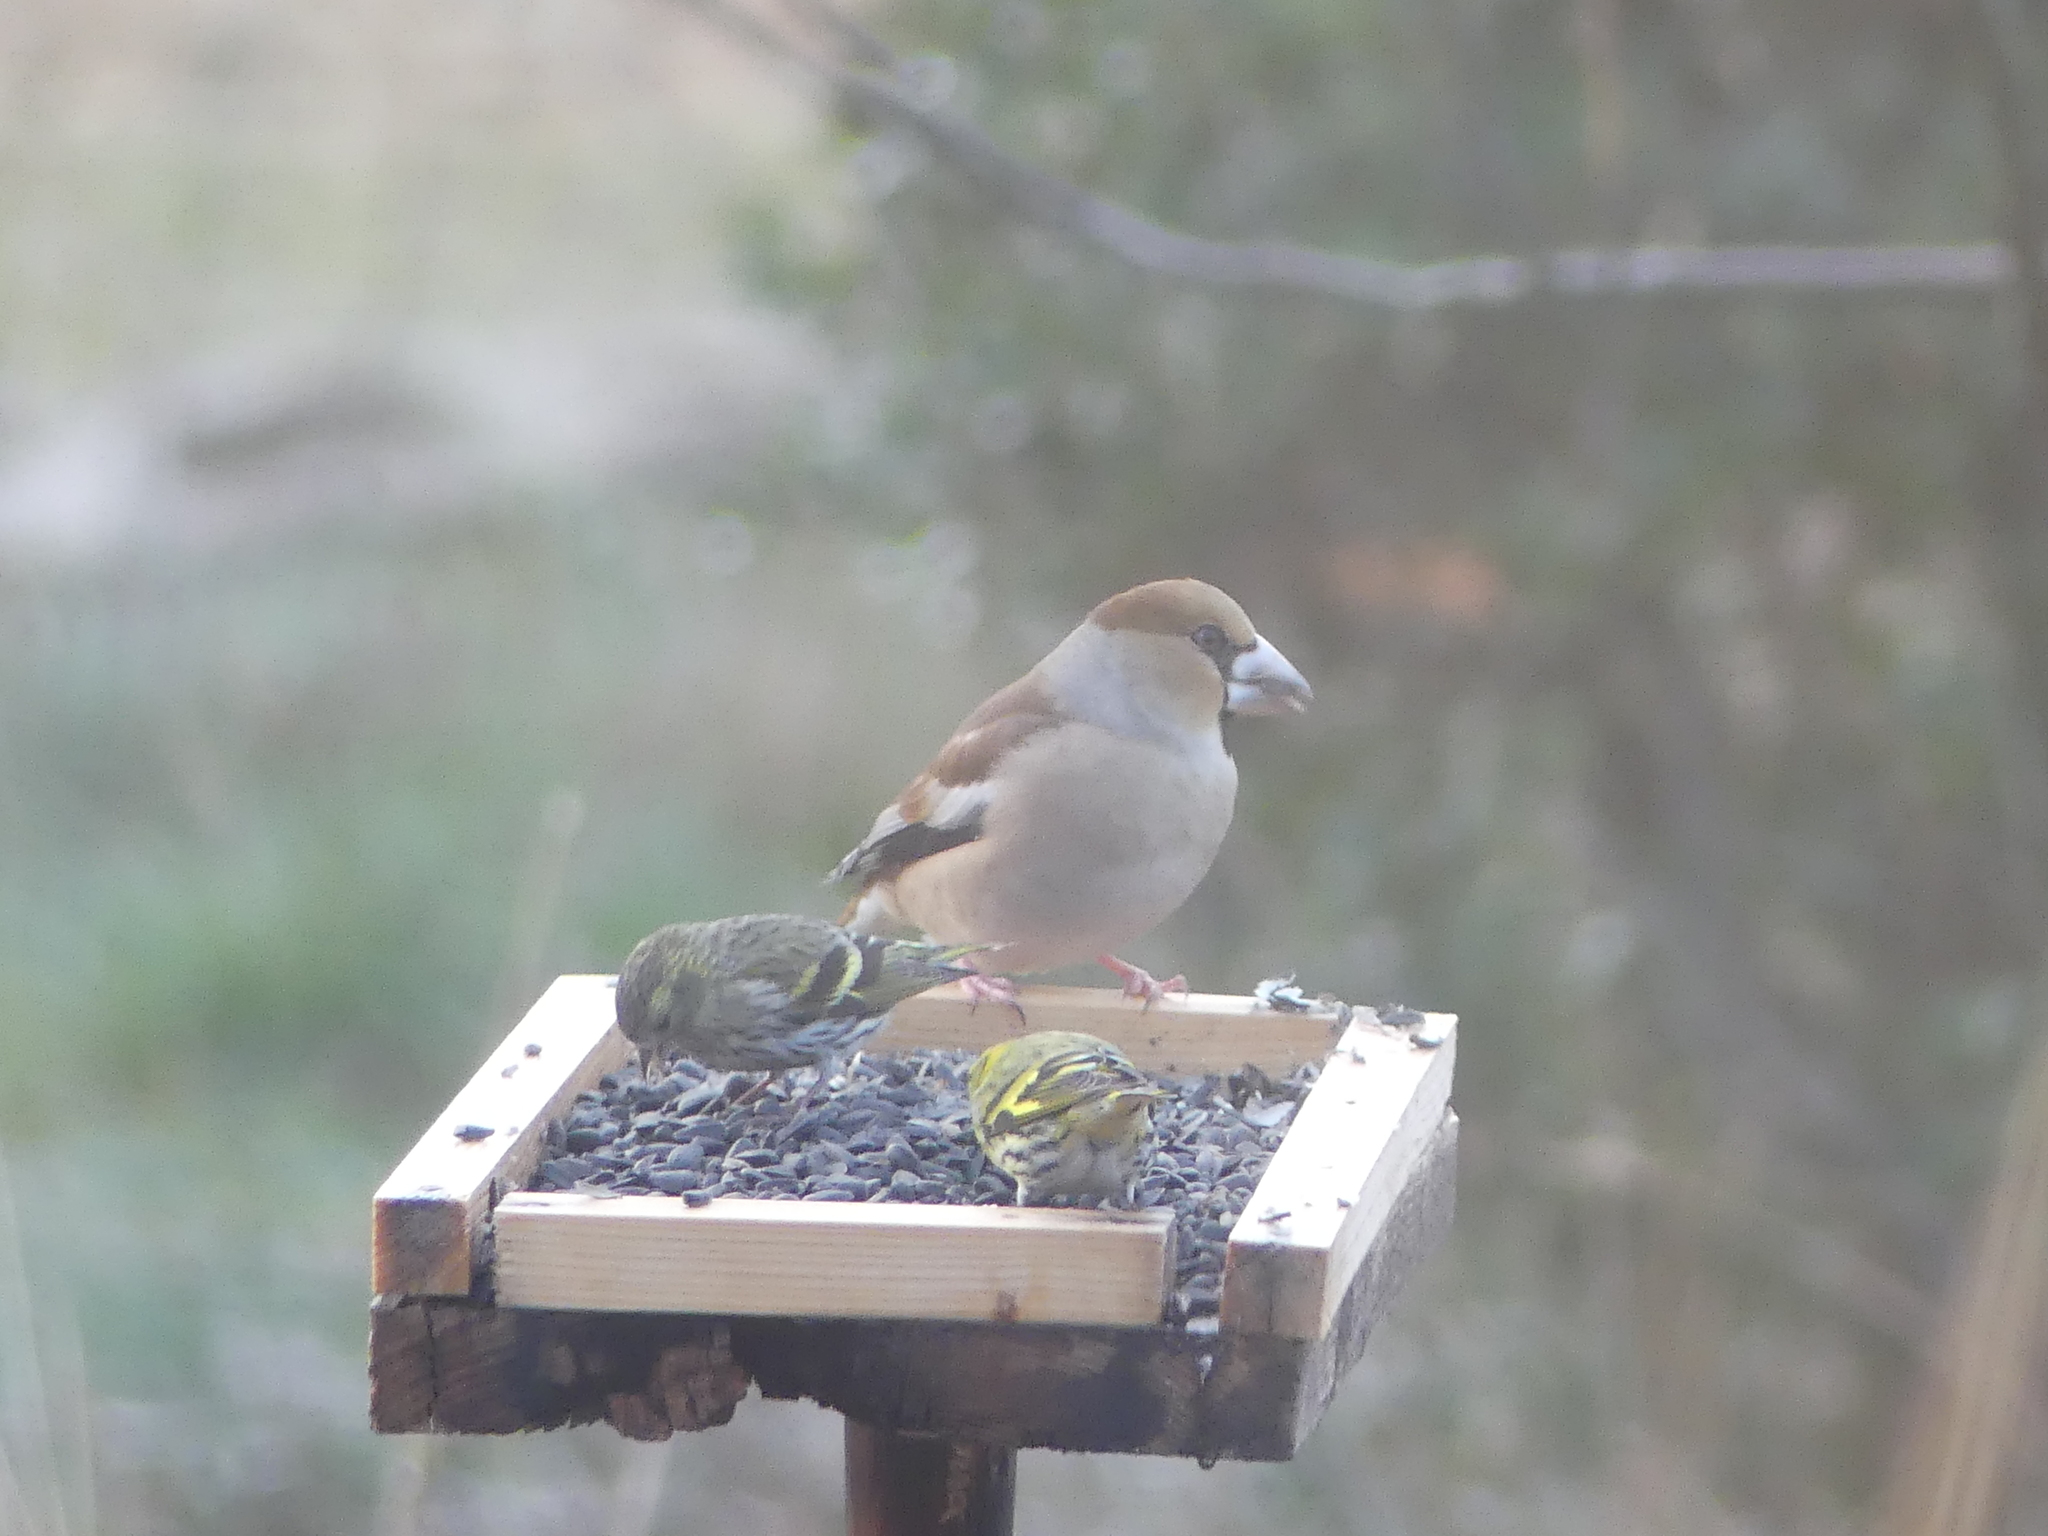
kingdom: Animalia
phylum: Chordata
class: Aves
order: Passeriformes
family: Fringillidae
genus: Coccothraustes
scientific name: Coccothraustes coccothraustes
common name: Hawfinch
